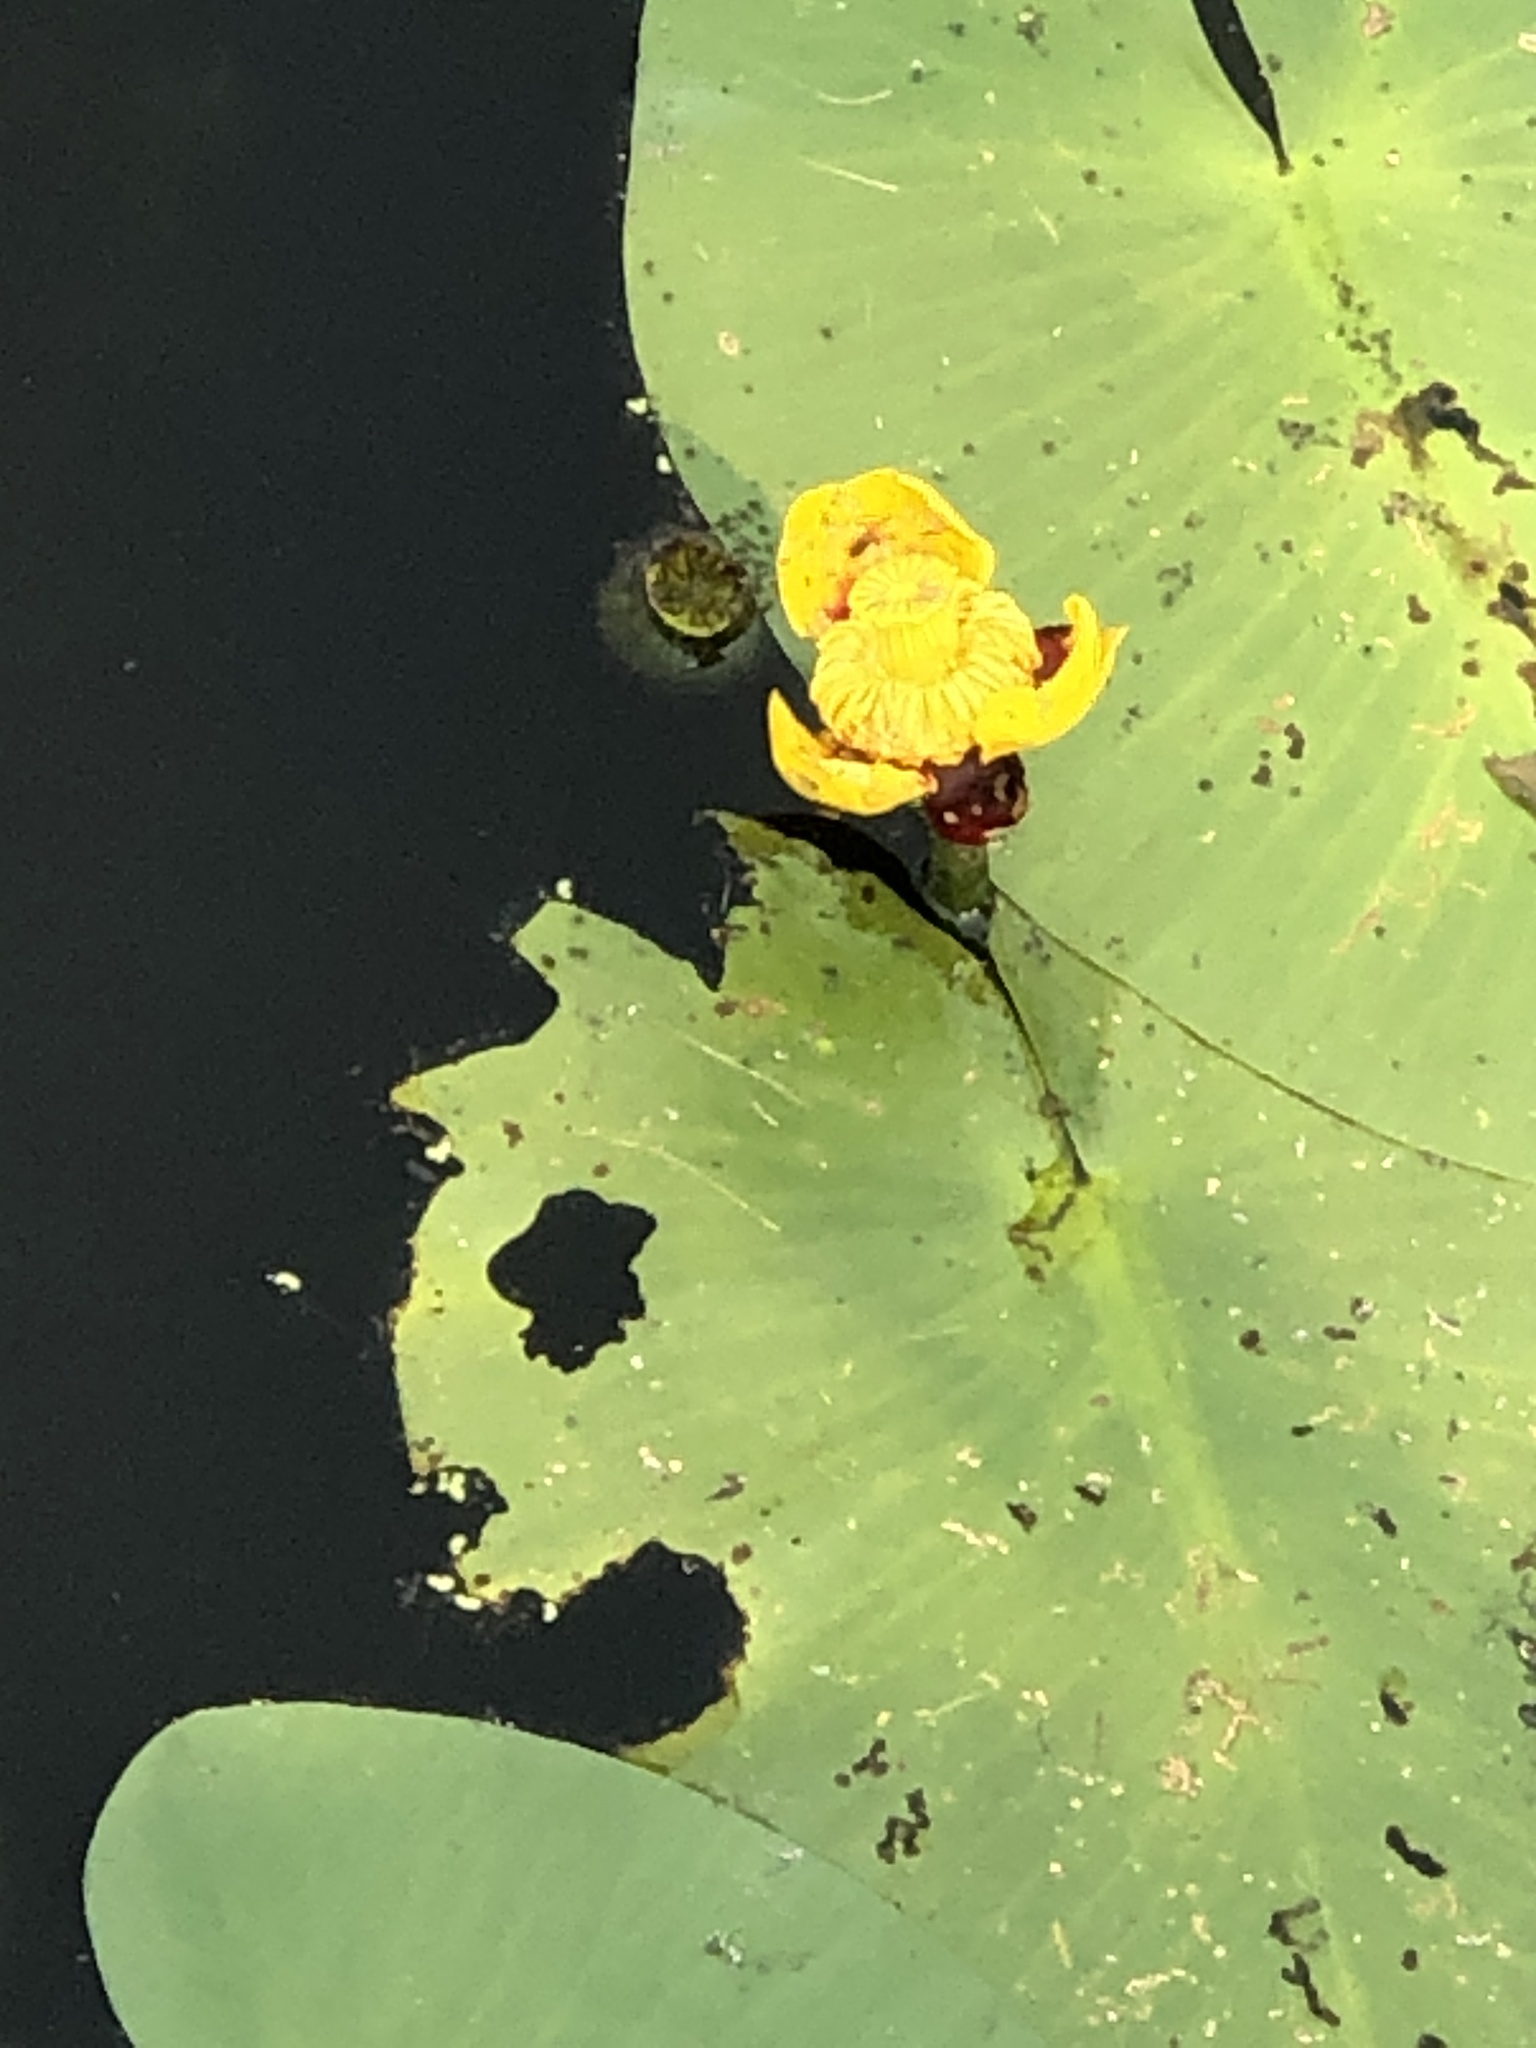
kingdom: Plantae
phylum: Tracheophyta
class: Magnoliopsida
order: Nymphaeales
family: Nymphaeaceae
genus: Nuphar
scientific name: Nuphar variegata
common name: Beaver-root
